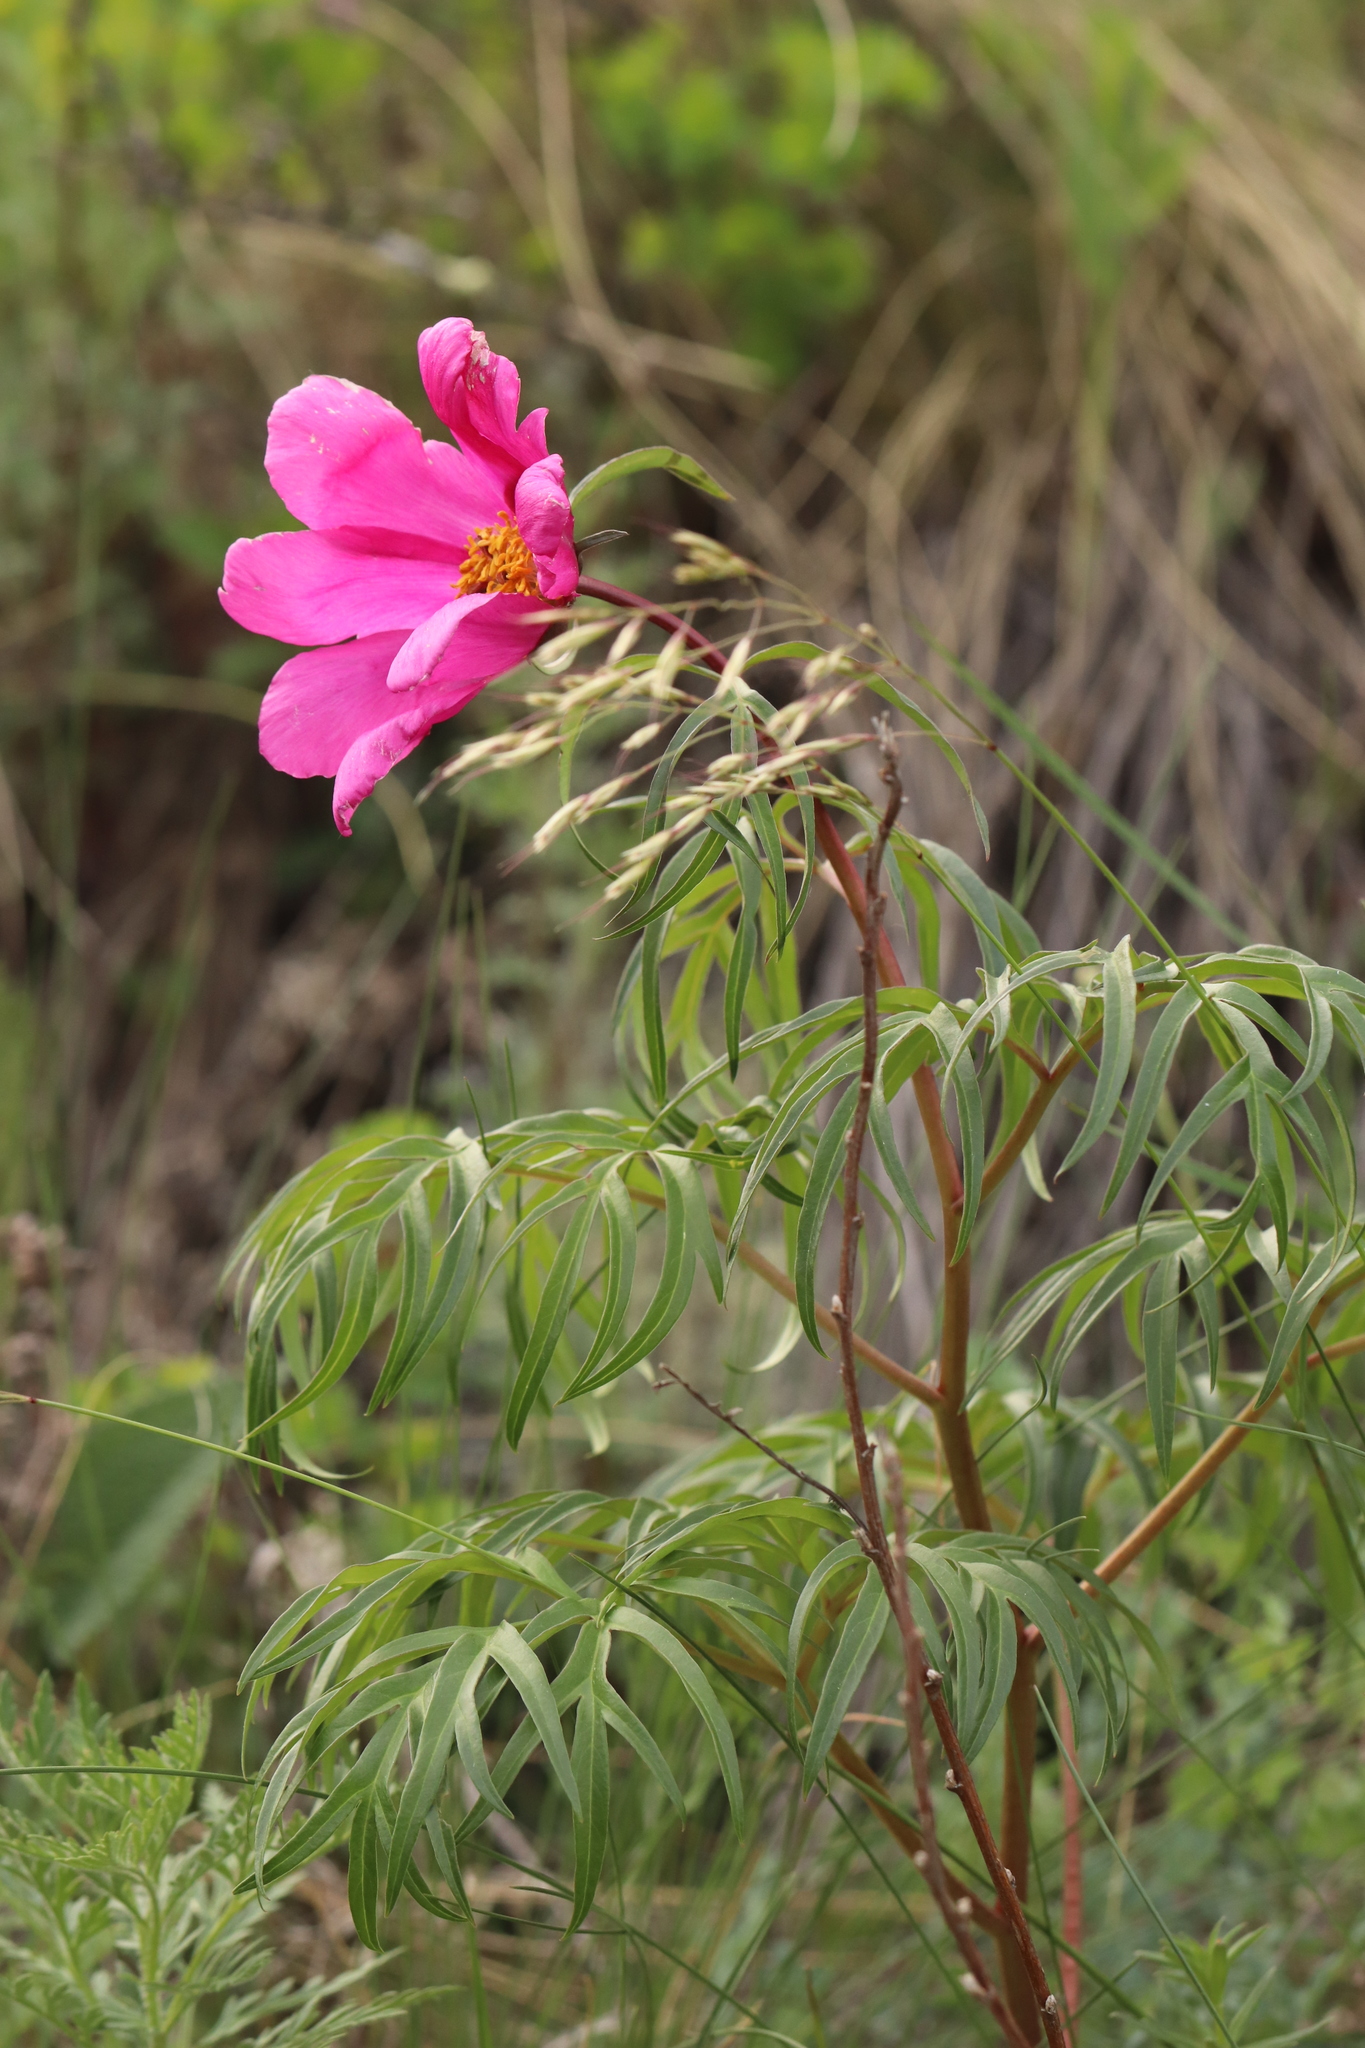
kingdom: Plantae
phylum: Tracheophyta
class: Magnoliopsida
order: Saxifragales
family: Paeoniaceae
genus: Paeonia
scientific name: Paeonia
